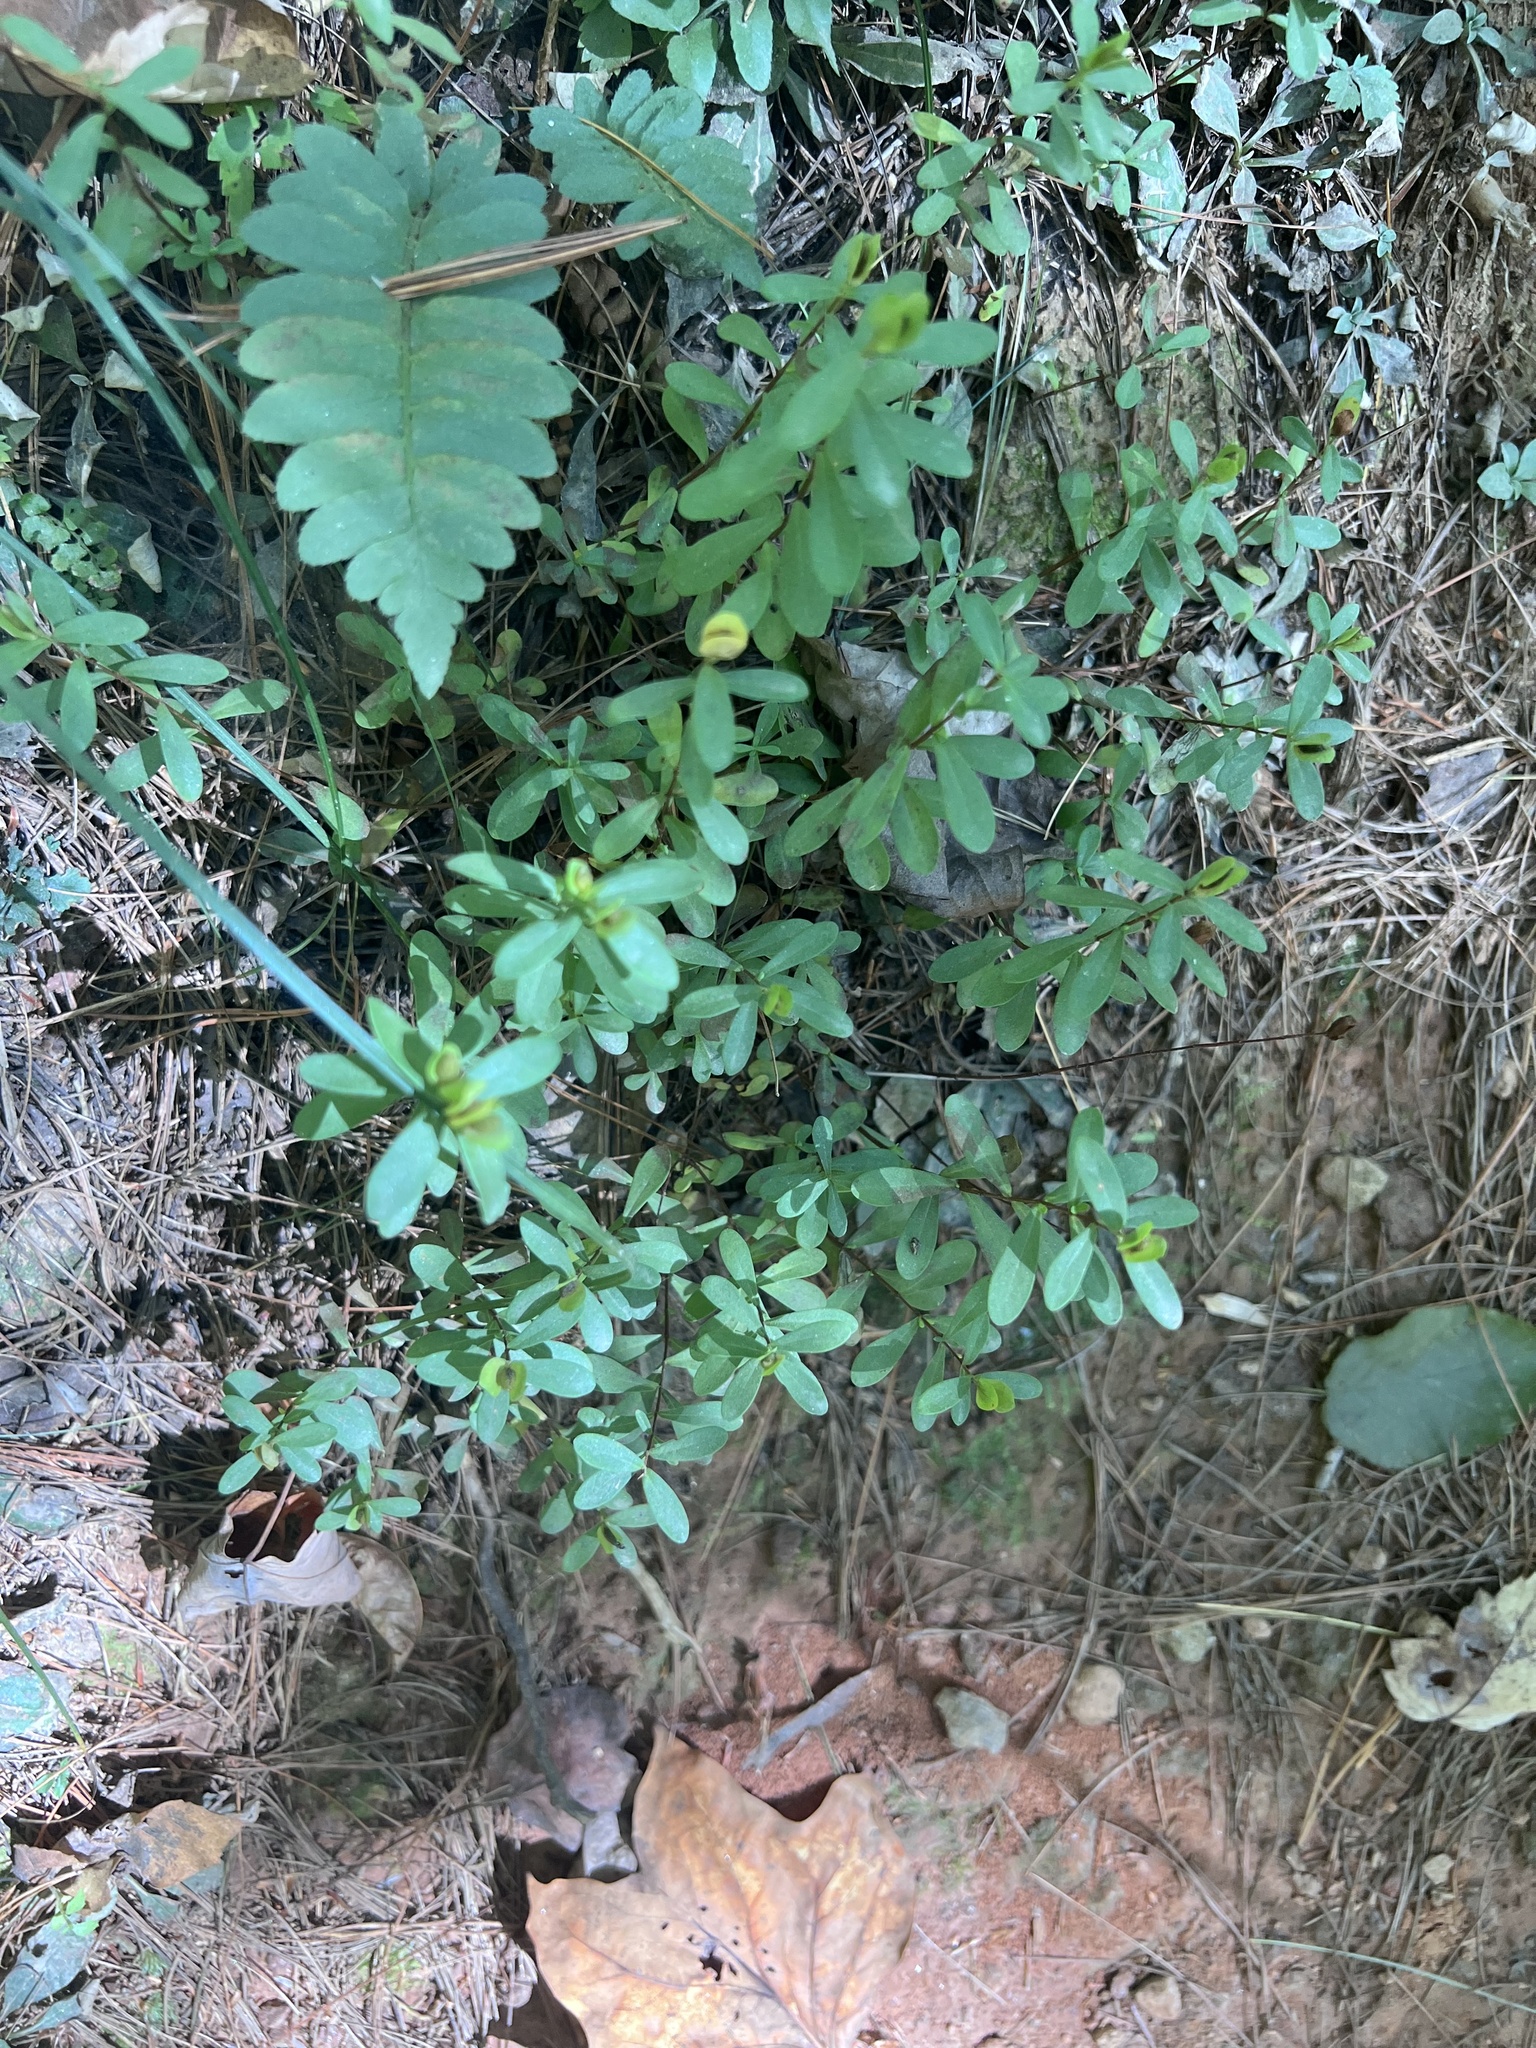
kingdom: Plantae
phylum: Tracheophyta
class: Magnoliopsida
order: Malpighiales
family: Hypericaceae
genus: Hypericum
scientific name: Hypericum hypericoides
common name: St. andrew's cross
